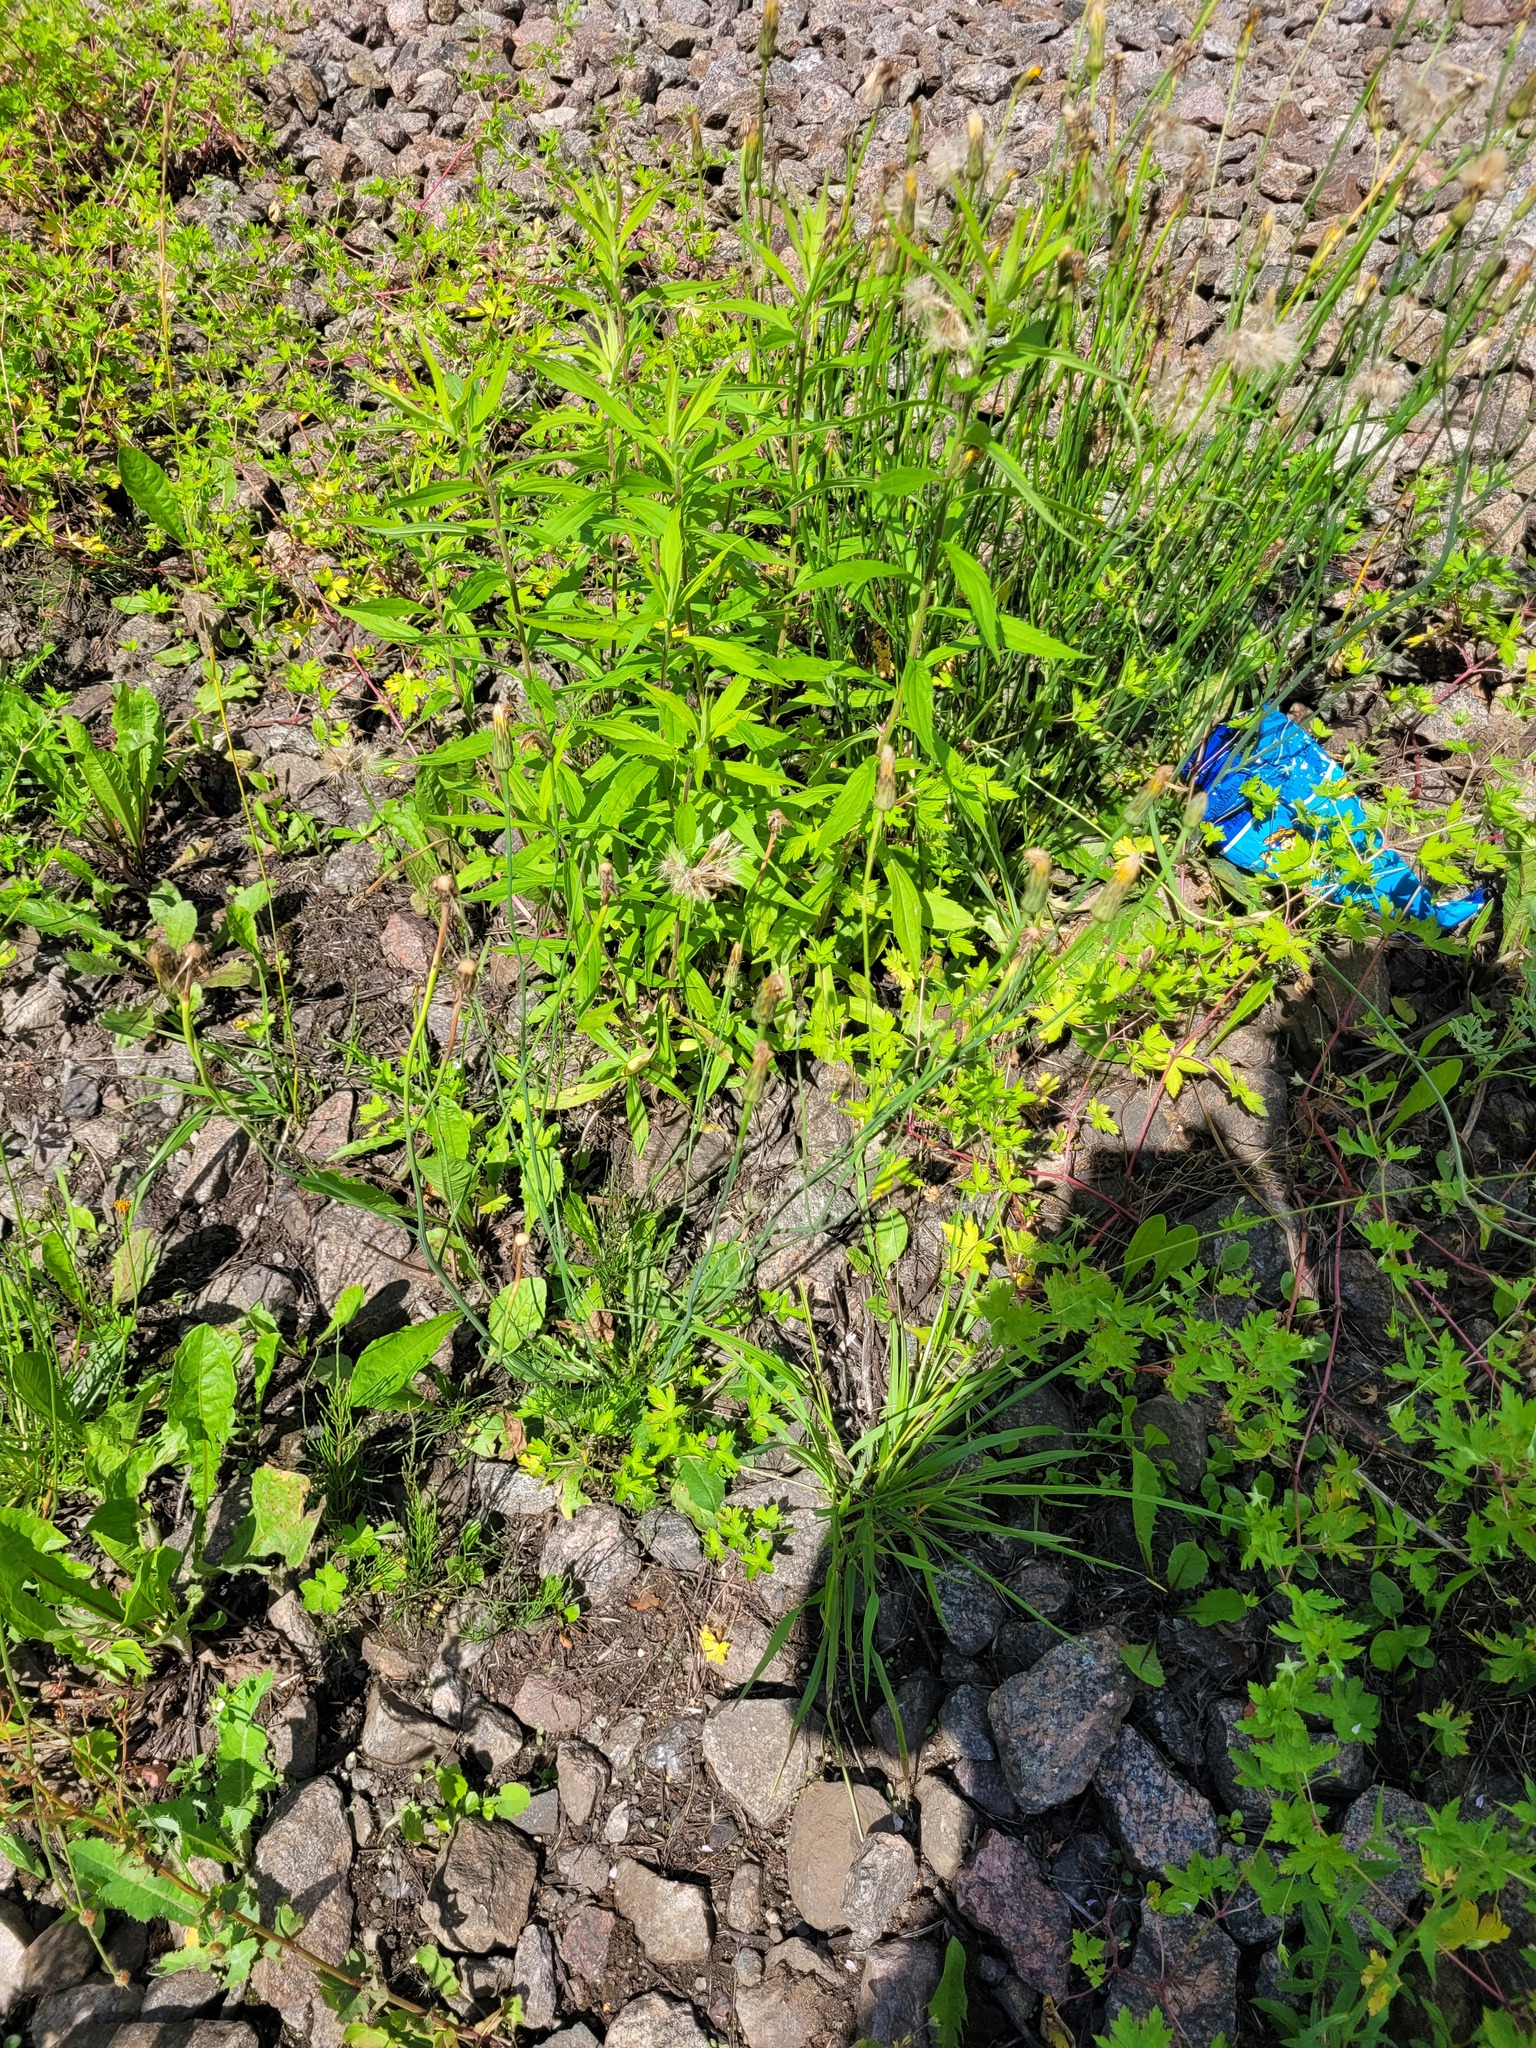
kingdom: Plantae
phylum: Tracheophyta
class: Magnoliopsida
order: Asterales
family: Asteraceae
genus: Hypochaeris
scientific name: Hypochaeris radicata
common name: Flatweed
